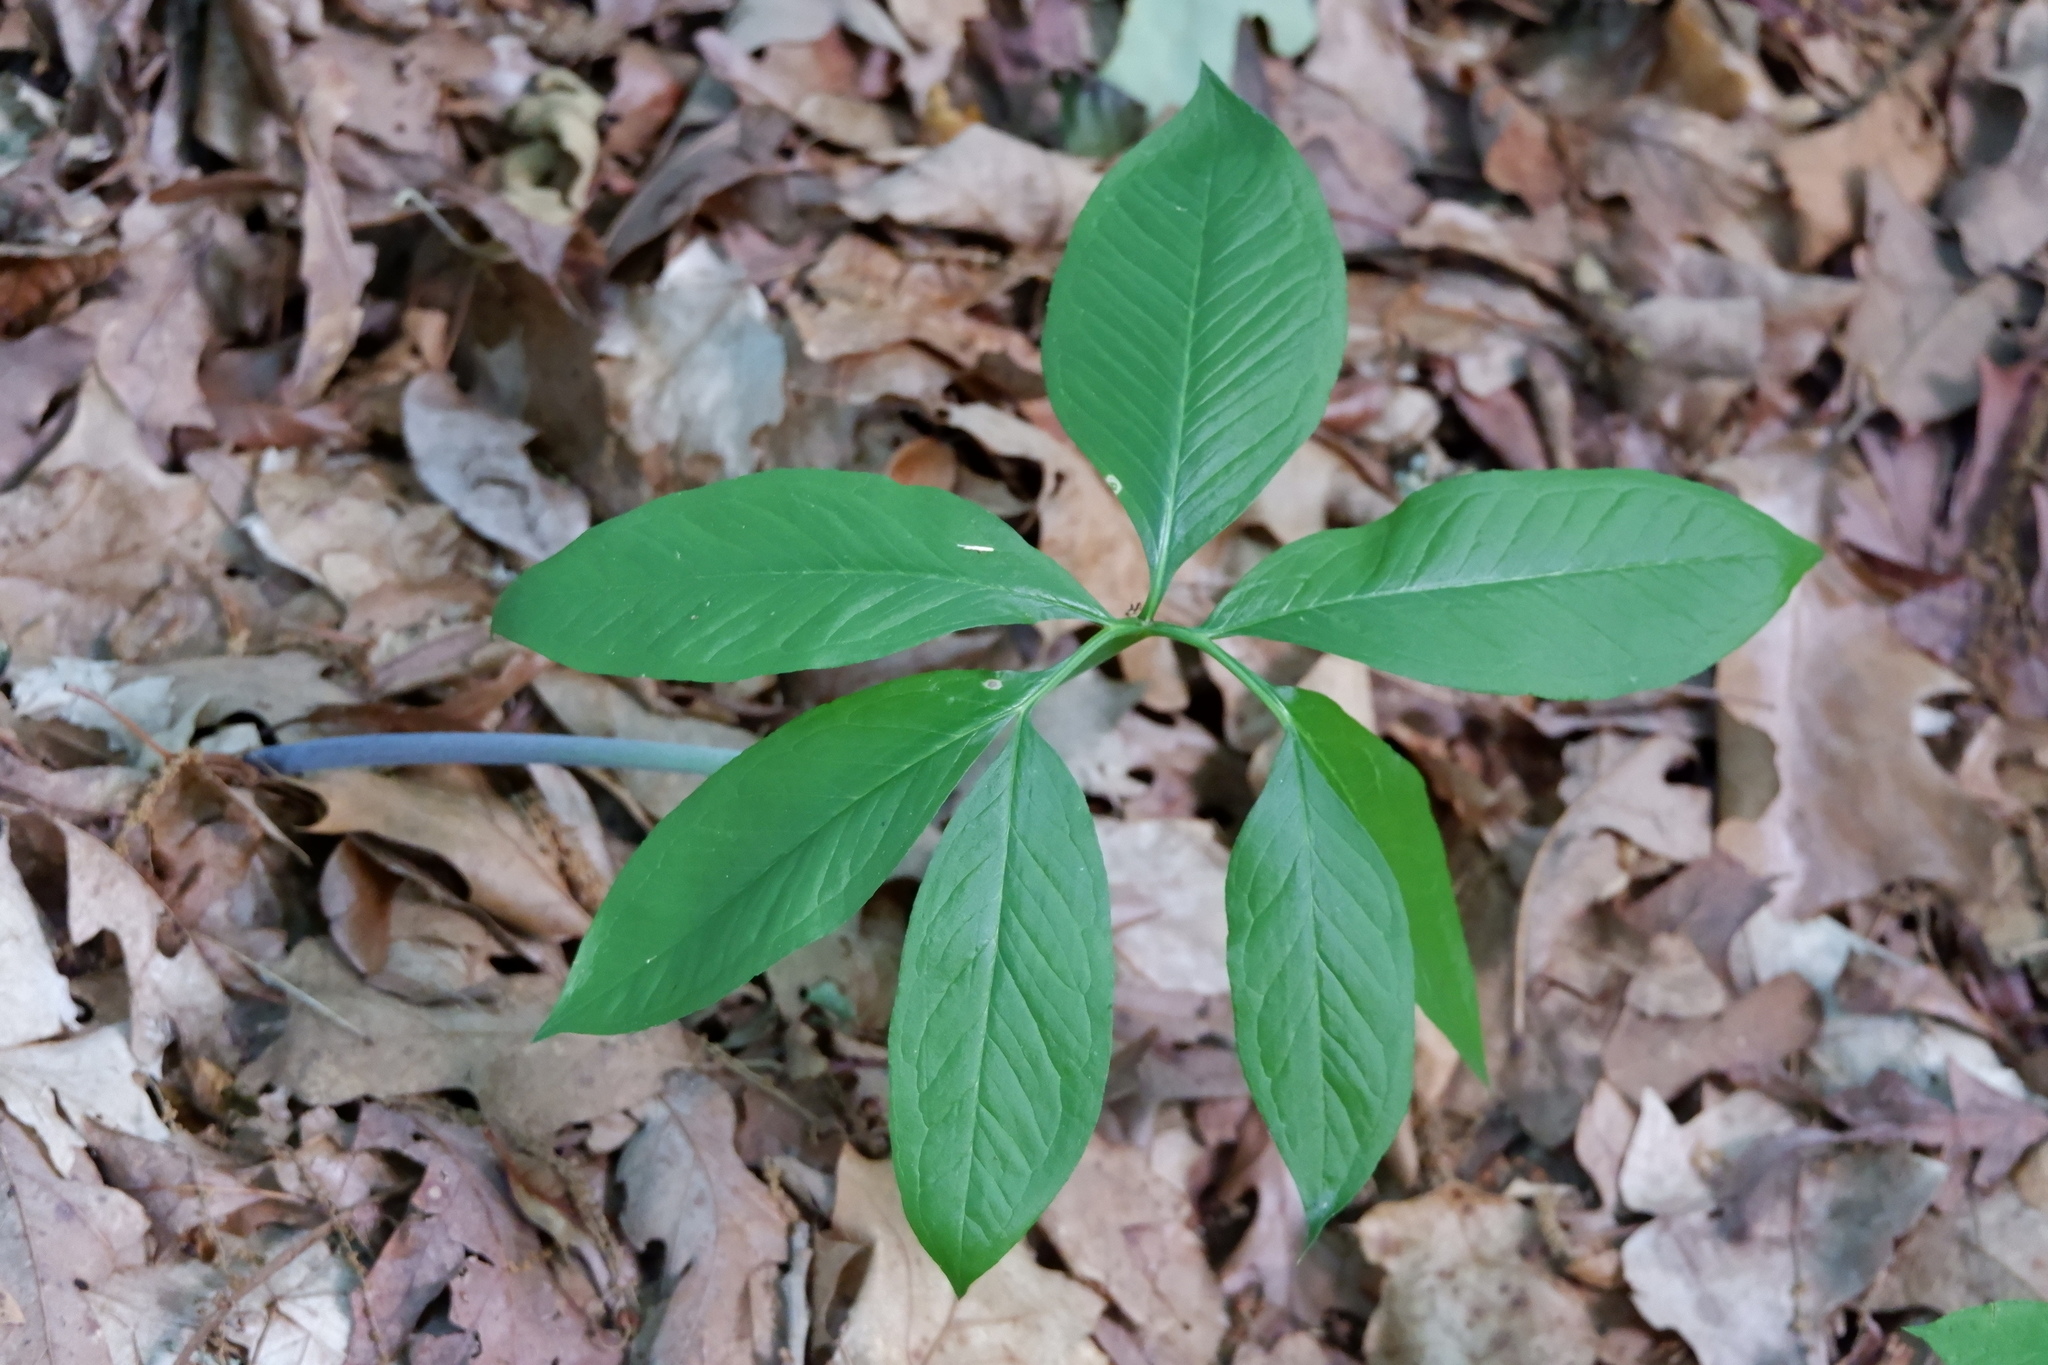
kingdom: Plantae
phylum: Tracheophyta
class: Liliopsida
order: Alismatales
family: Araceae
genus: Arisaema
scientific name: Arisaema dracontium
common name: Dragon-arum
